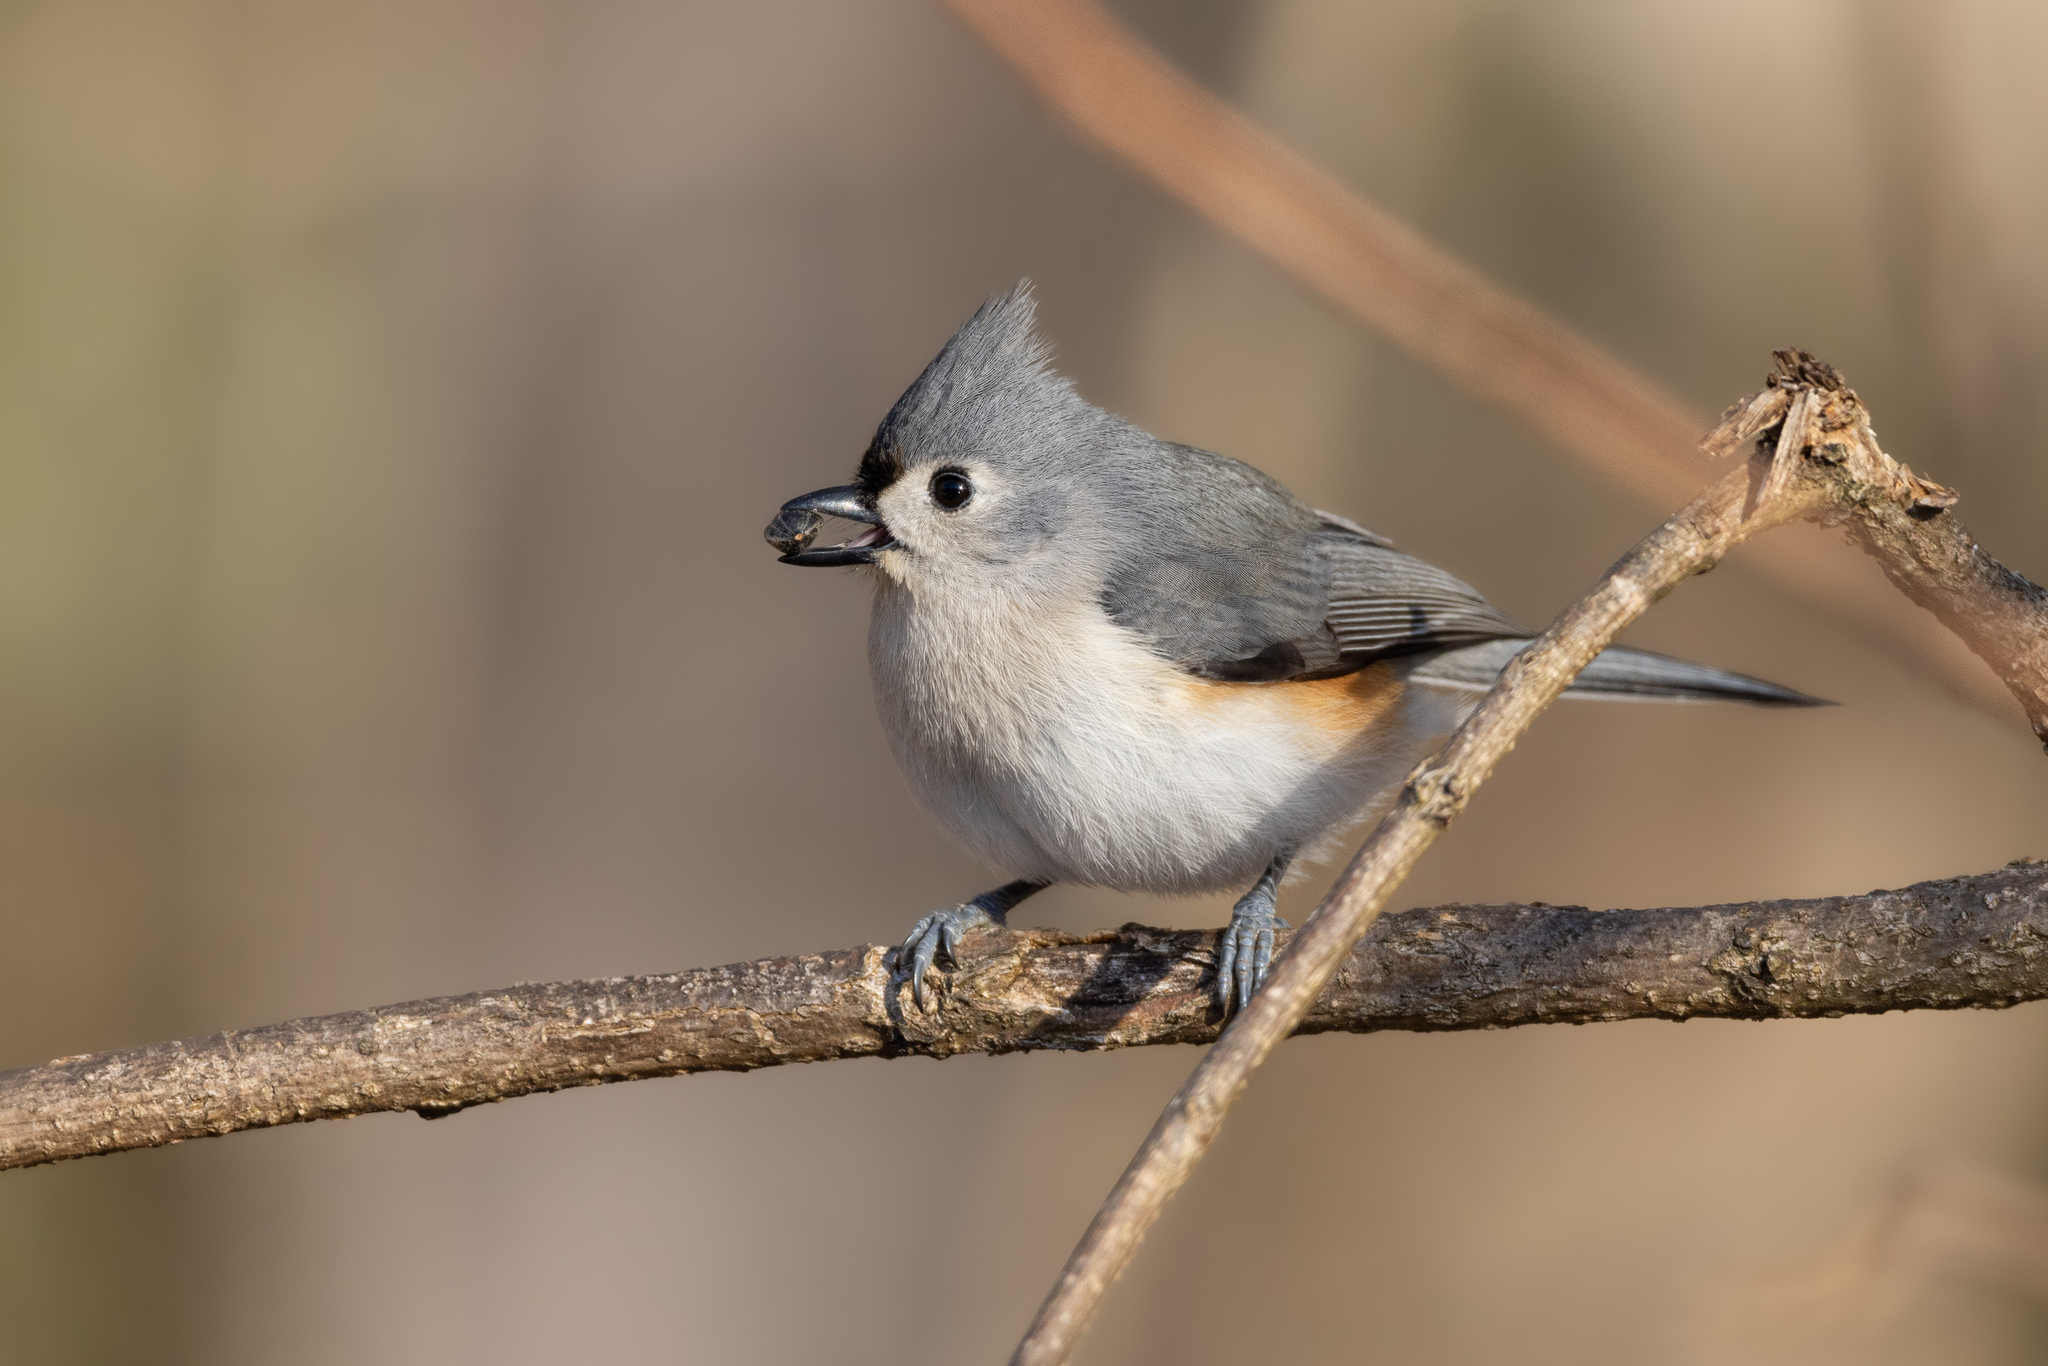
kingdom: Animalia
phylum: Chordata
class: Aves
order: Passeriformes
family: Paridae
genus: Baeolophus
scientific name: Baeolophus bicolor
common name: Tufted titmouse
